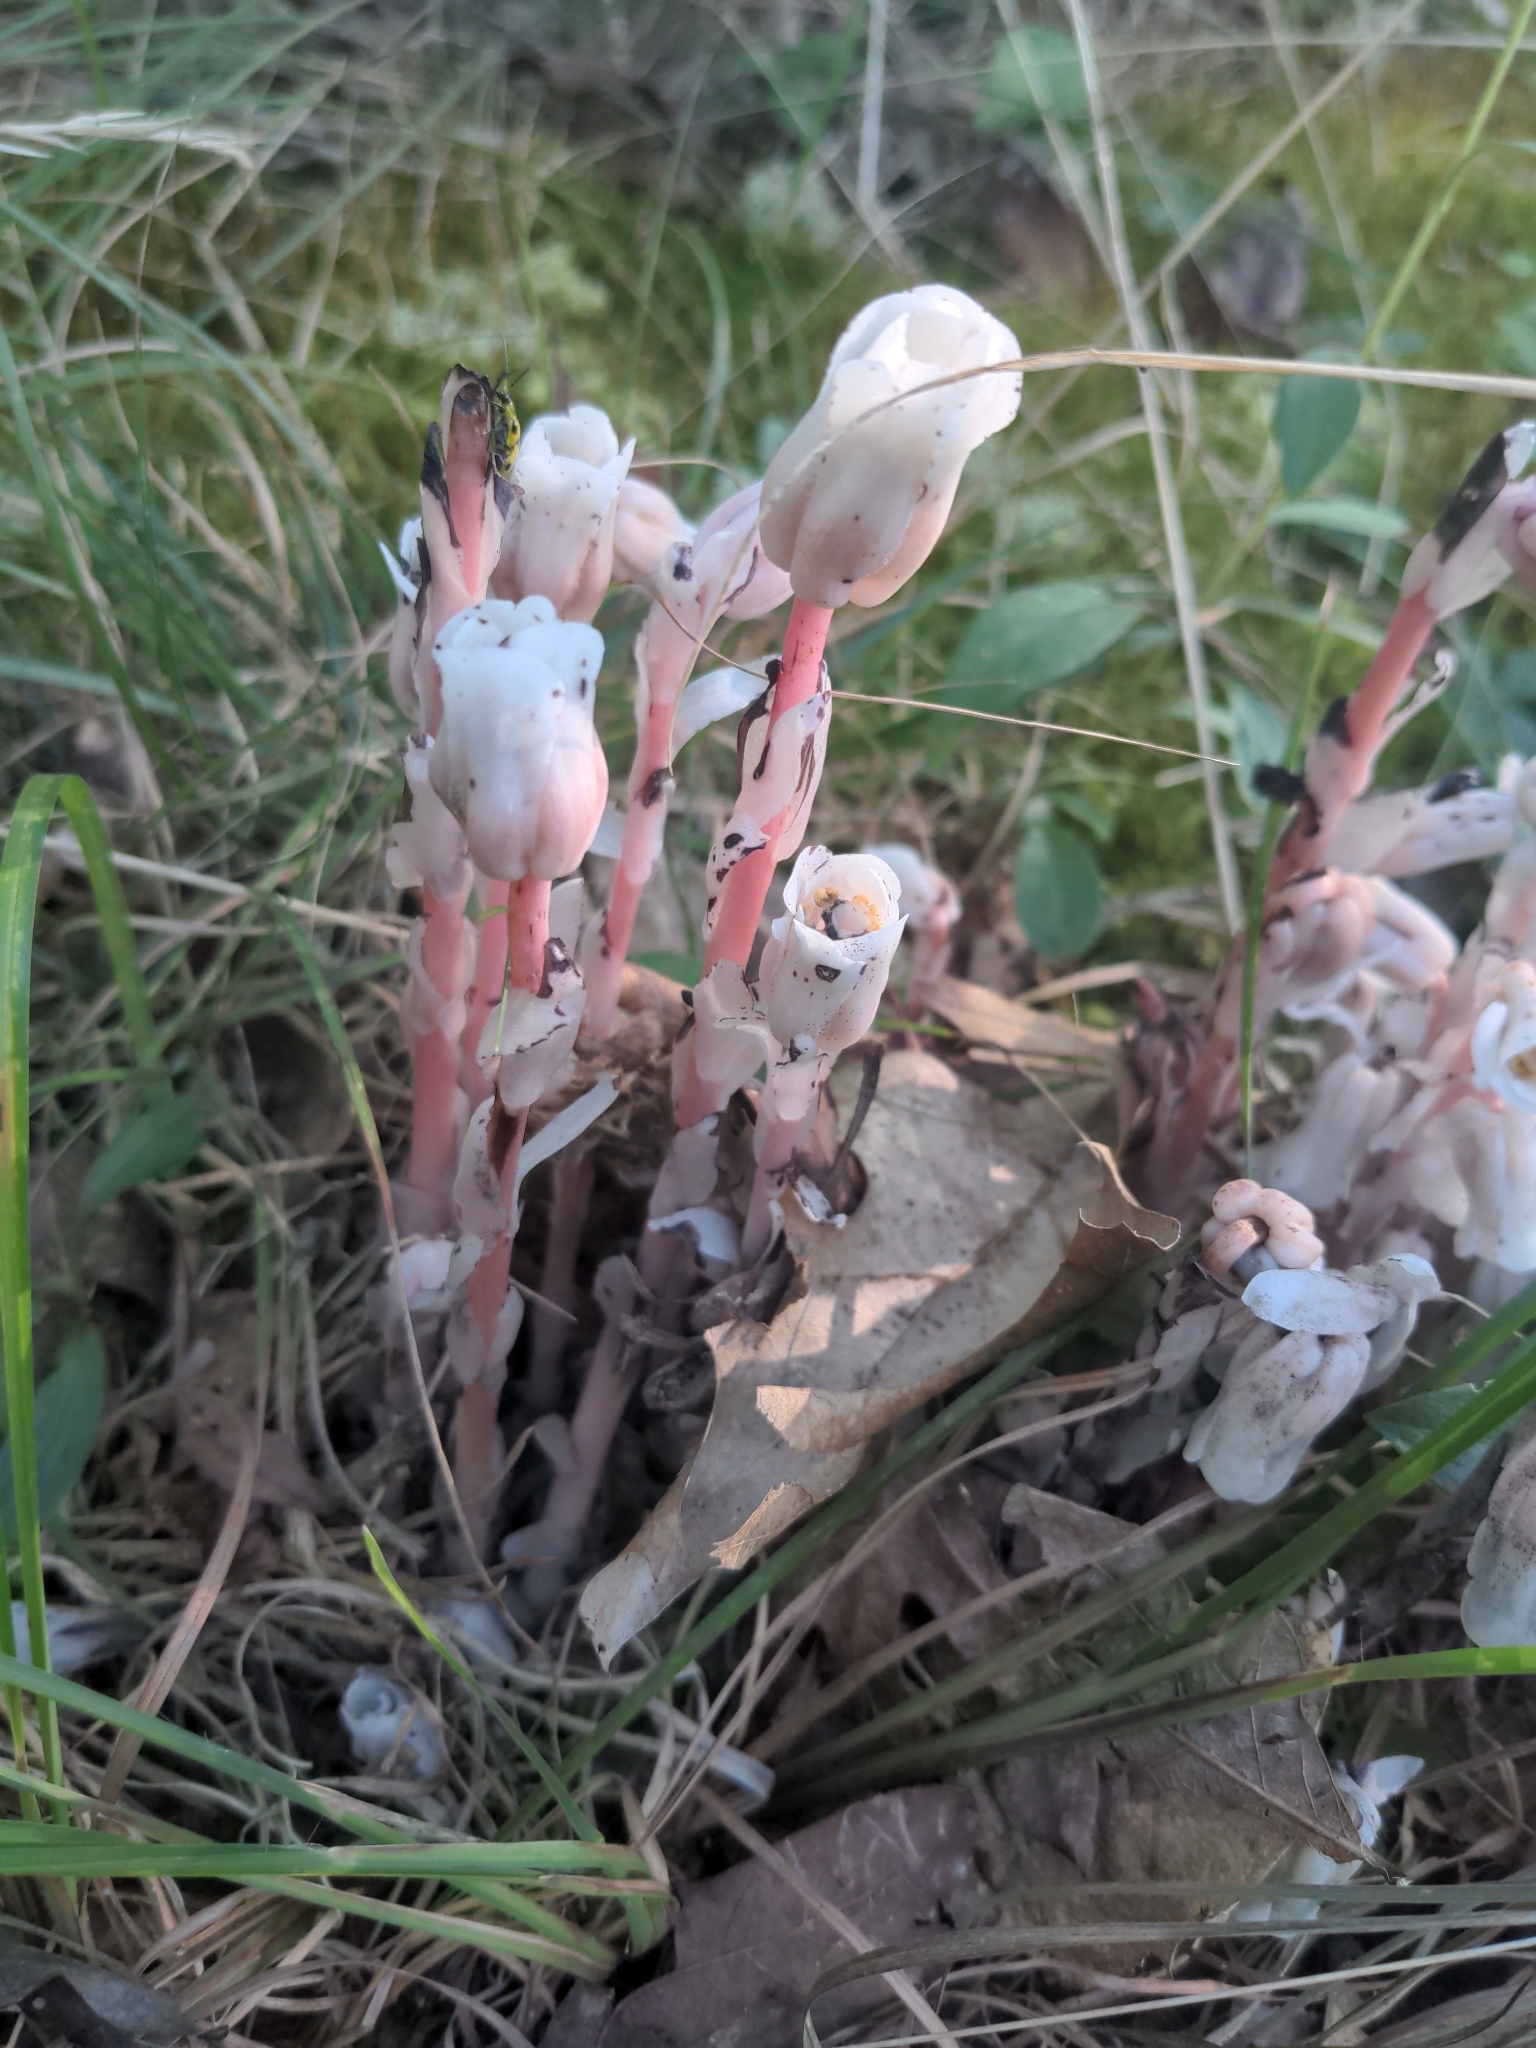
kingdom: Plantae
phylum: Tracheophyta
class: Magnoliopsida
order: Ericales
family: Ericaceae
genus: Monotropa
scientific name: Monotropa uniflora
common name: Convulsion root
